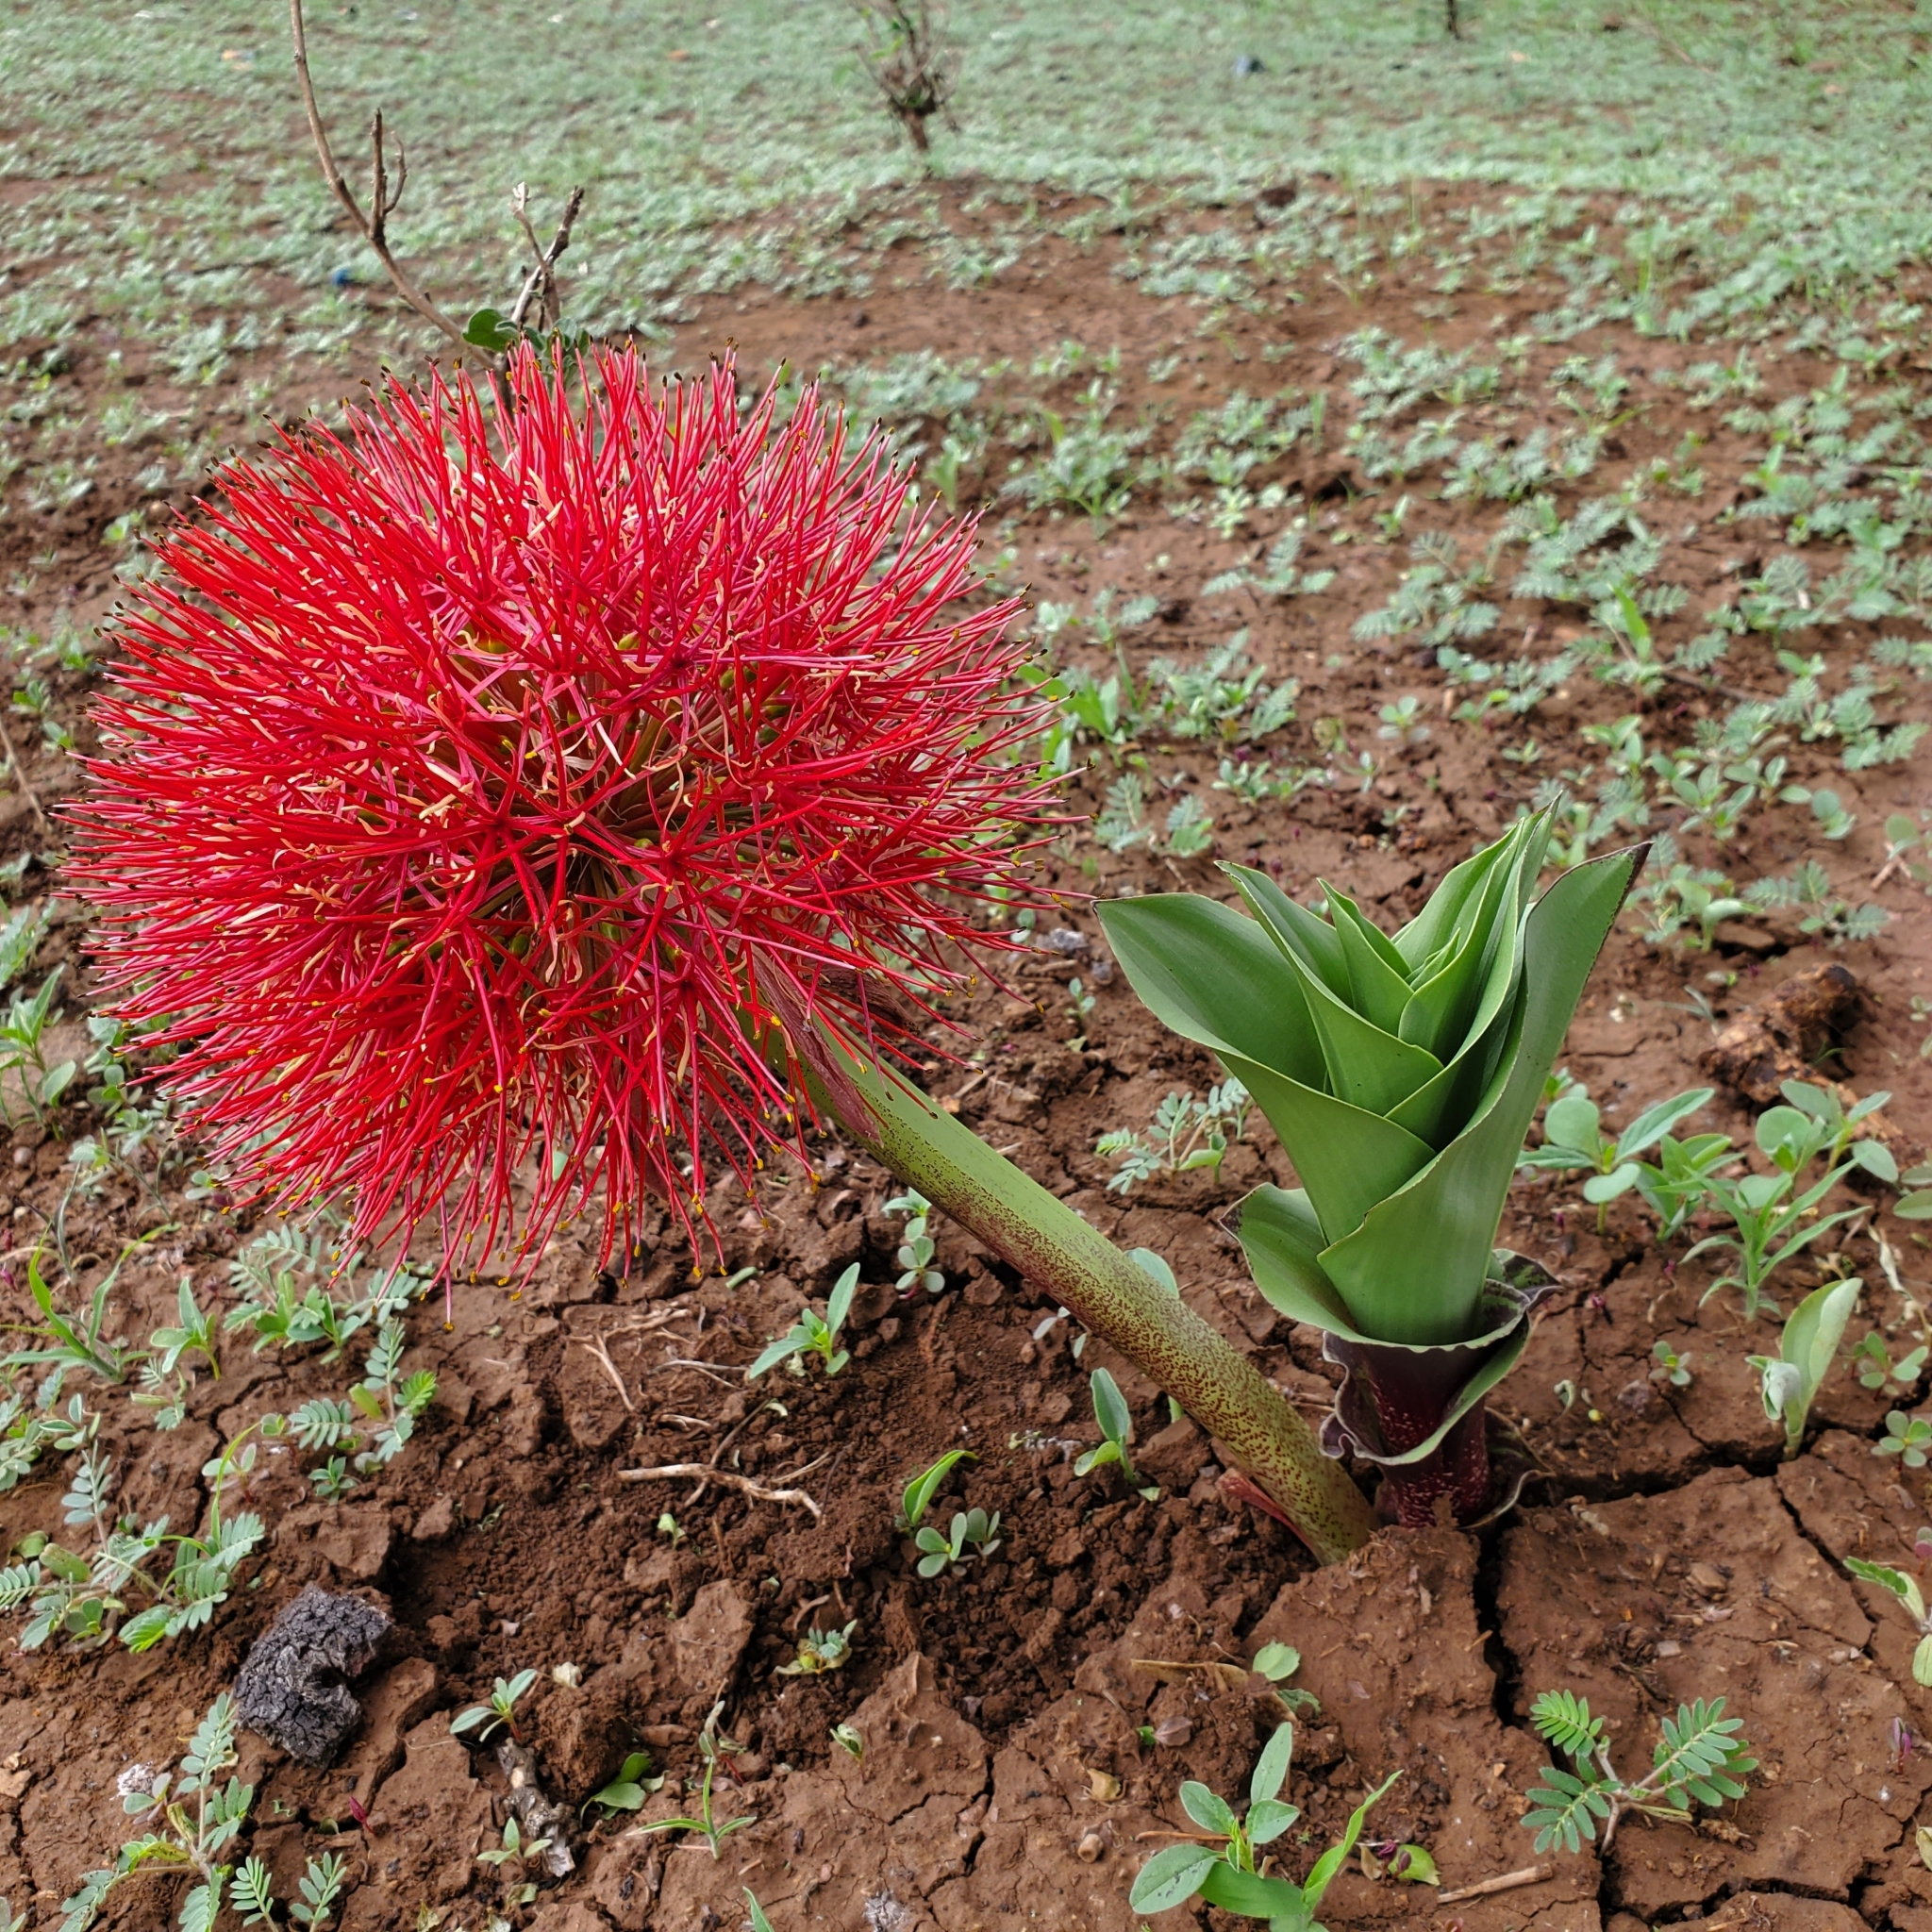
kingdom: Plantae
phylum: Tracheophyta
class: Liliopsida
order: Asparagales
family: Amaryllidaceae
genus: Scadoxus
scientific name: Scadoxus multiflorus
